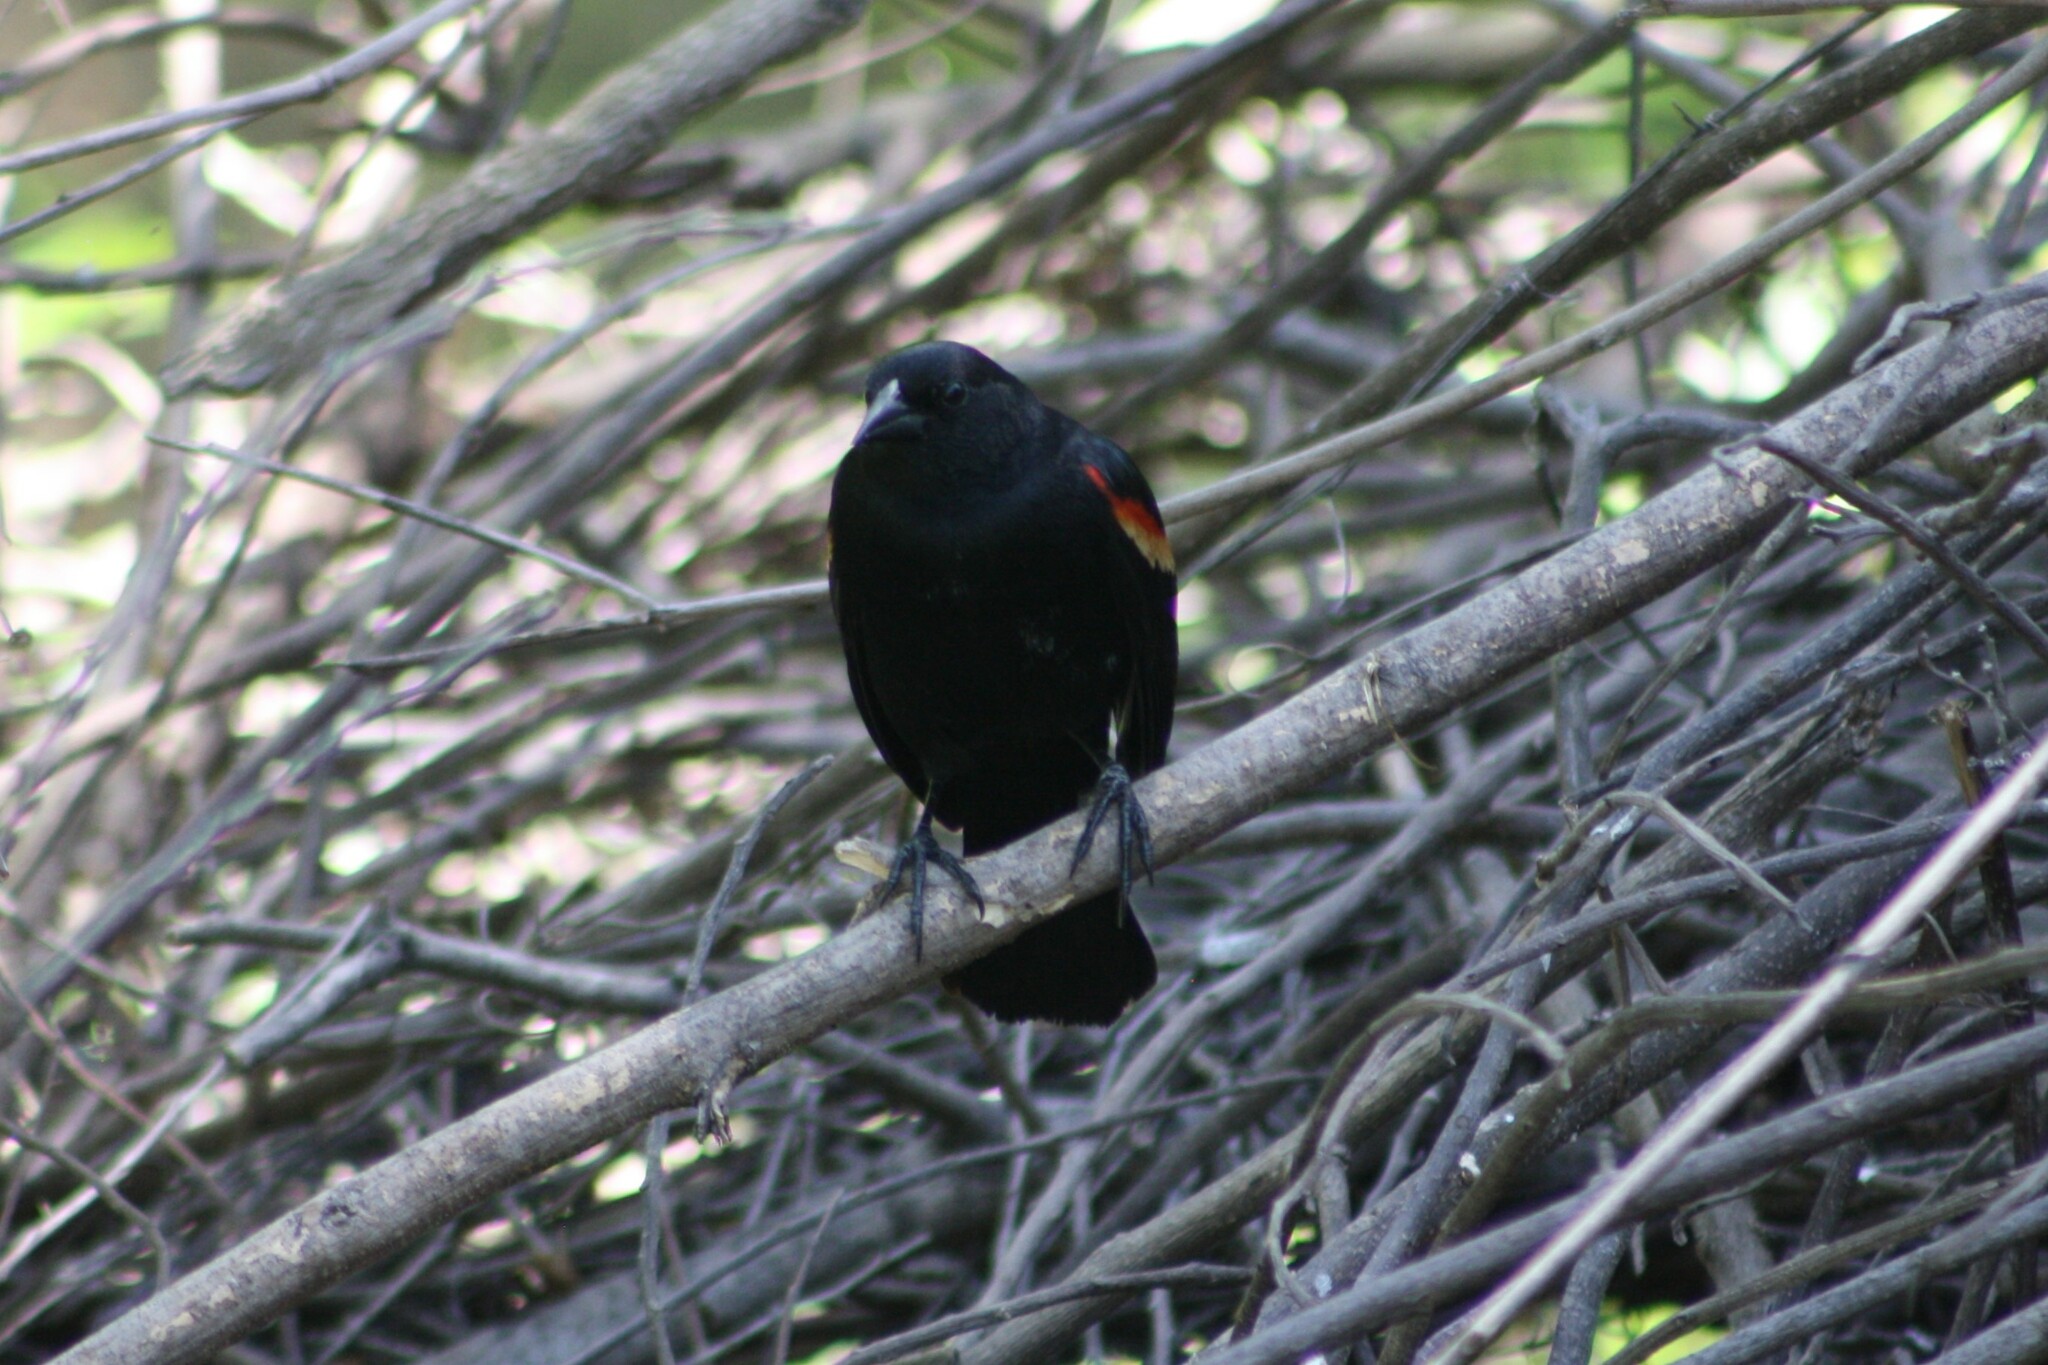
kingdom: Animalia
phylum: Chordata
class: Aves
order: Passeriformes
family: Icteridae
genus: Agelaius
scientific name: Agelaius phoeniceus
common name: Red-winged blackbird
